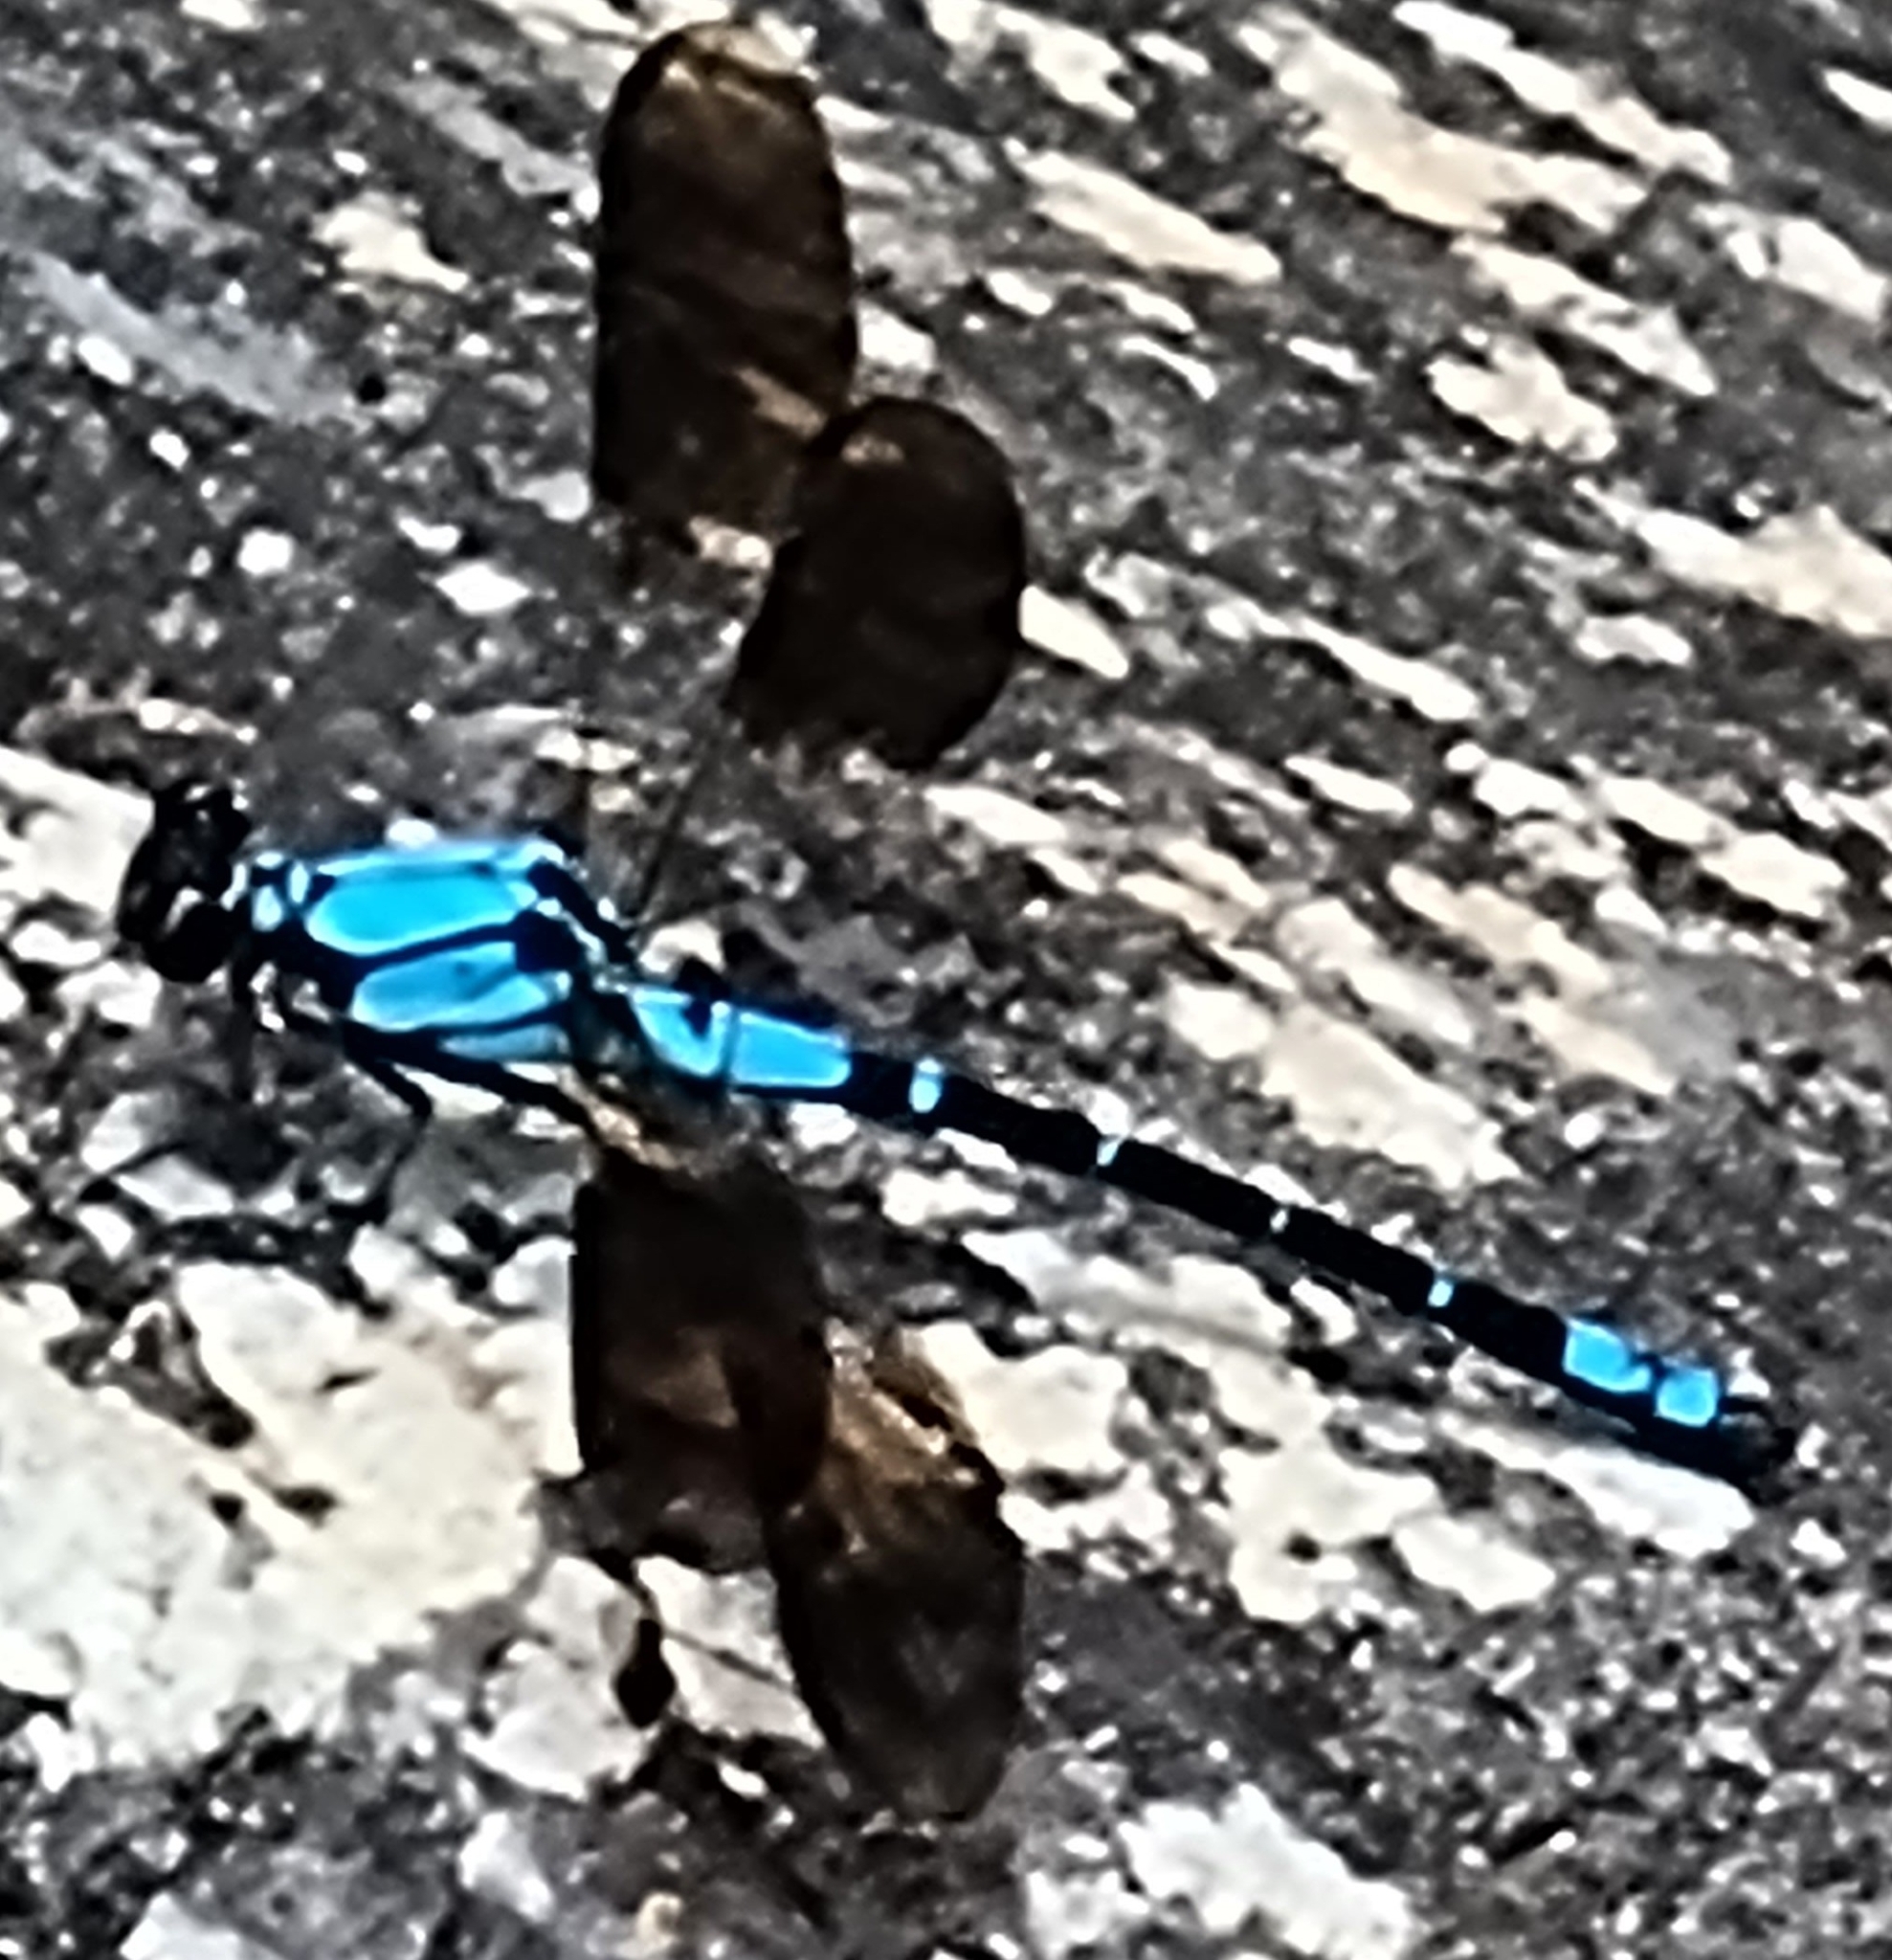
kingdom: Animalia
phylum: Arthropoda
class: Insecta
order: Odonata
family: Lestoideidae
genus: Diphlebia
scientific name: Diphlebia coerulescens
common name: Sapphire rockmaster
